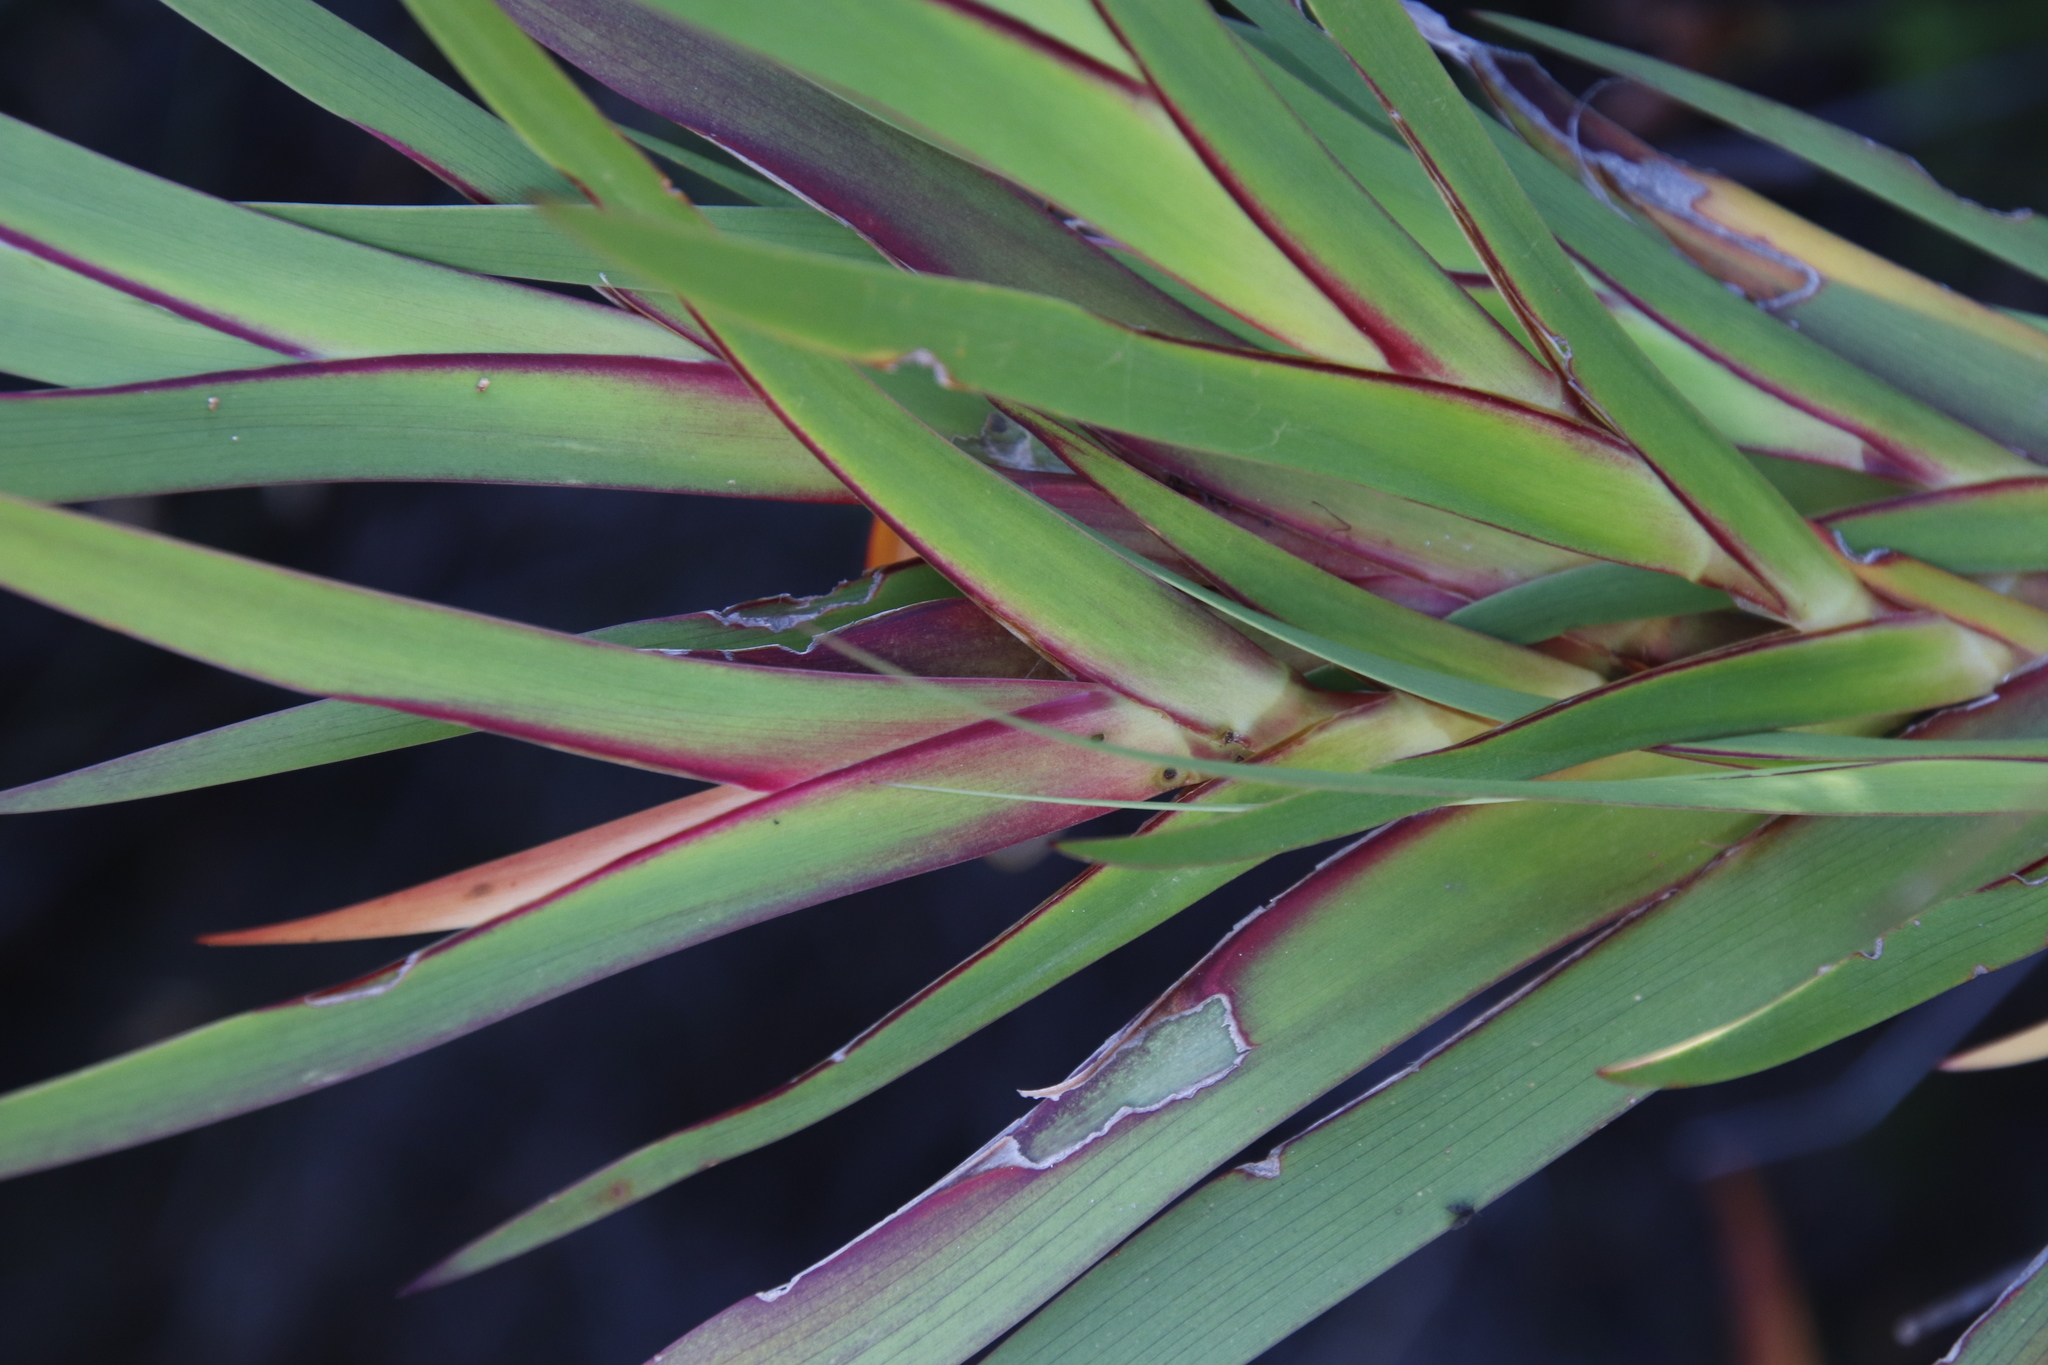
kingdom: Plantae
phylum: Tracheophyta
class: Liliopsida
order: Asparagales
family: Iridaceae
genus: Klattia
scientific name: Klattia stokoei
